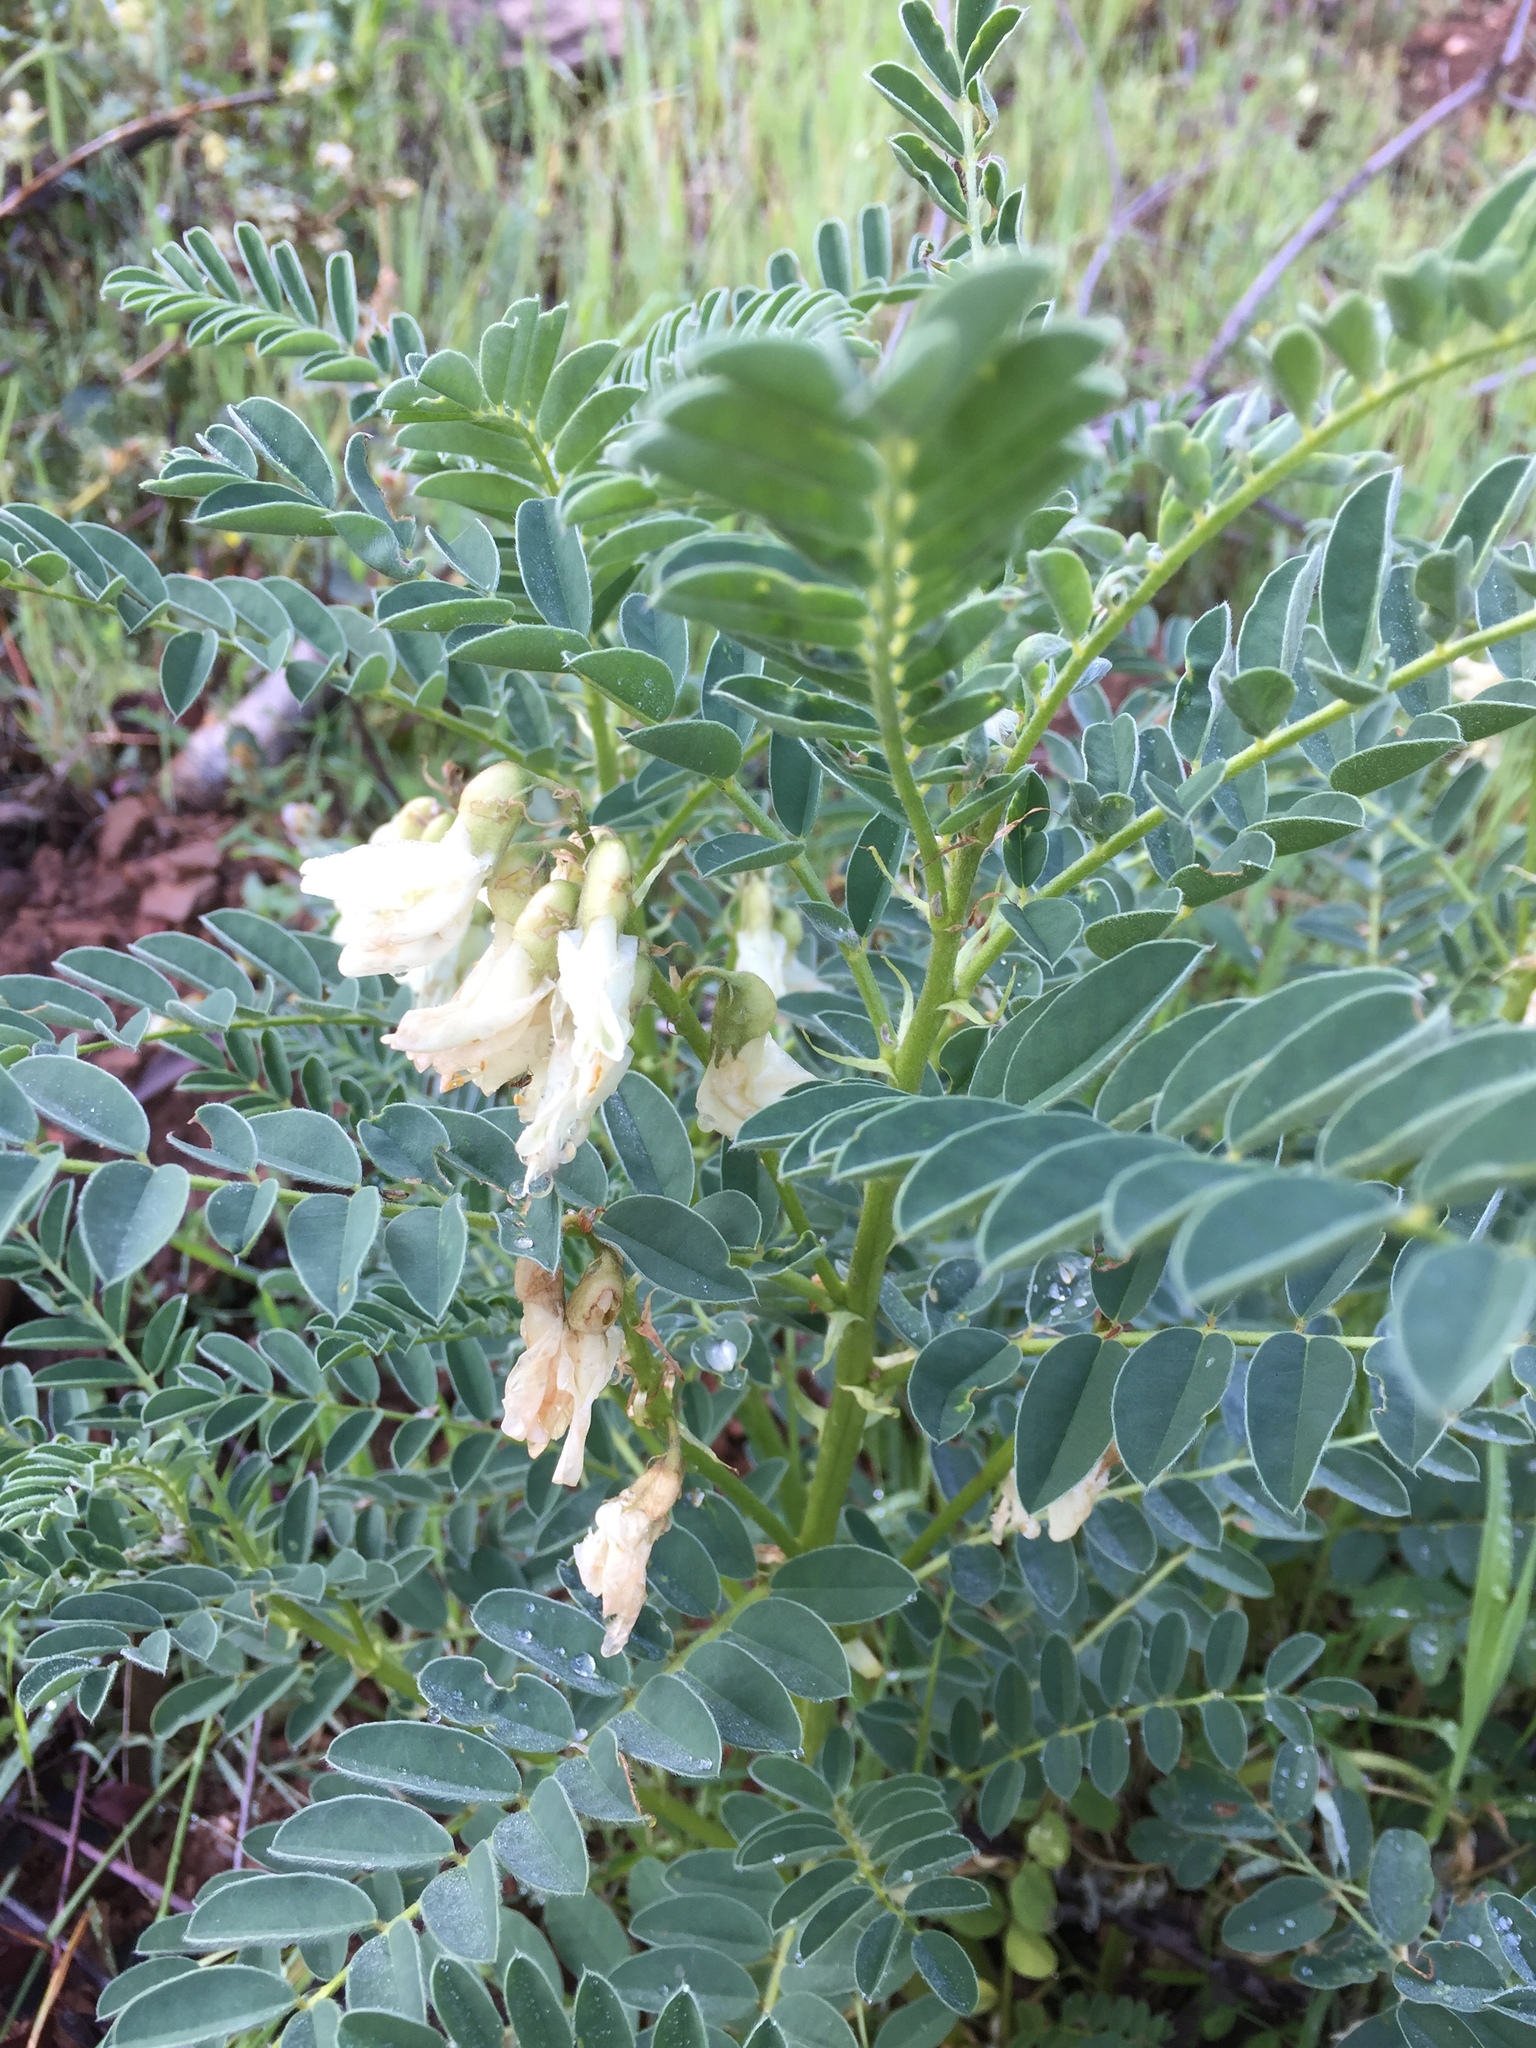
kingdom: Plantae
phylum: Tracheophyta
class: Magnoliopsida
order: Fabales
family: Fabaceae
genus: Erophaca
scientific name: Erophaca baetica
